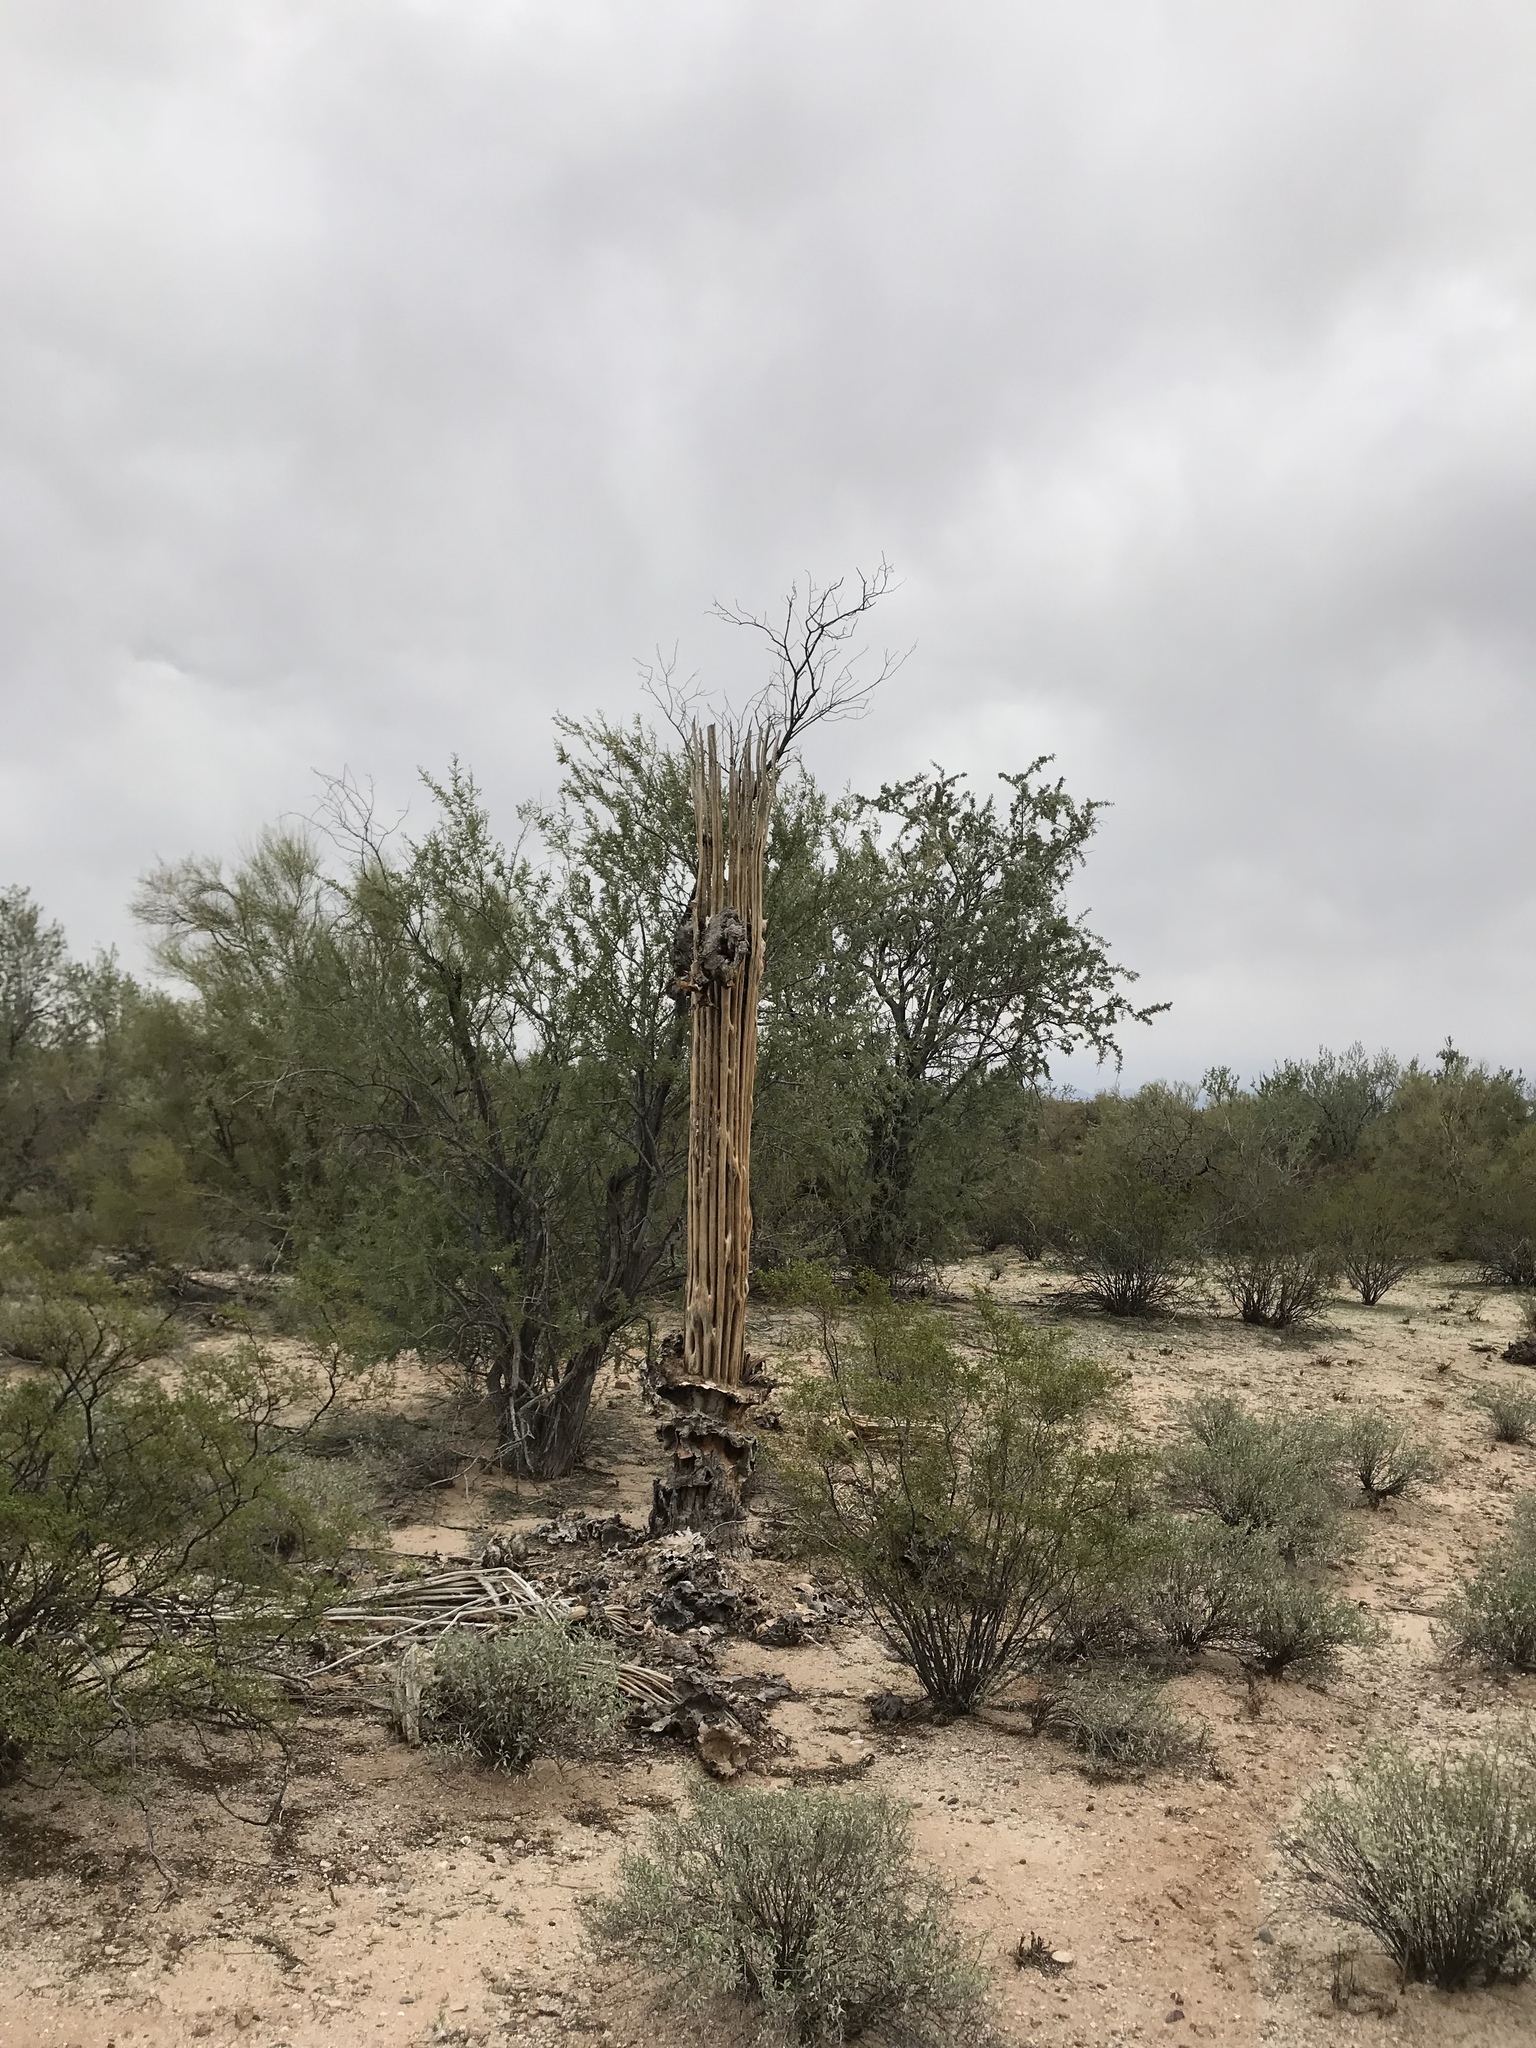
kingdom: Plantae
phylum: Tracheophyta
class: Magnoliopsida
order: Caryophyllales
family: Cactaceae
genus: Carnegiea
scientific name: Carnegiea gigantea
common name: Saguaro
